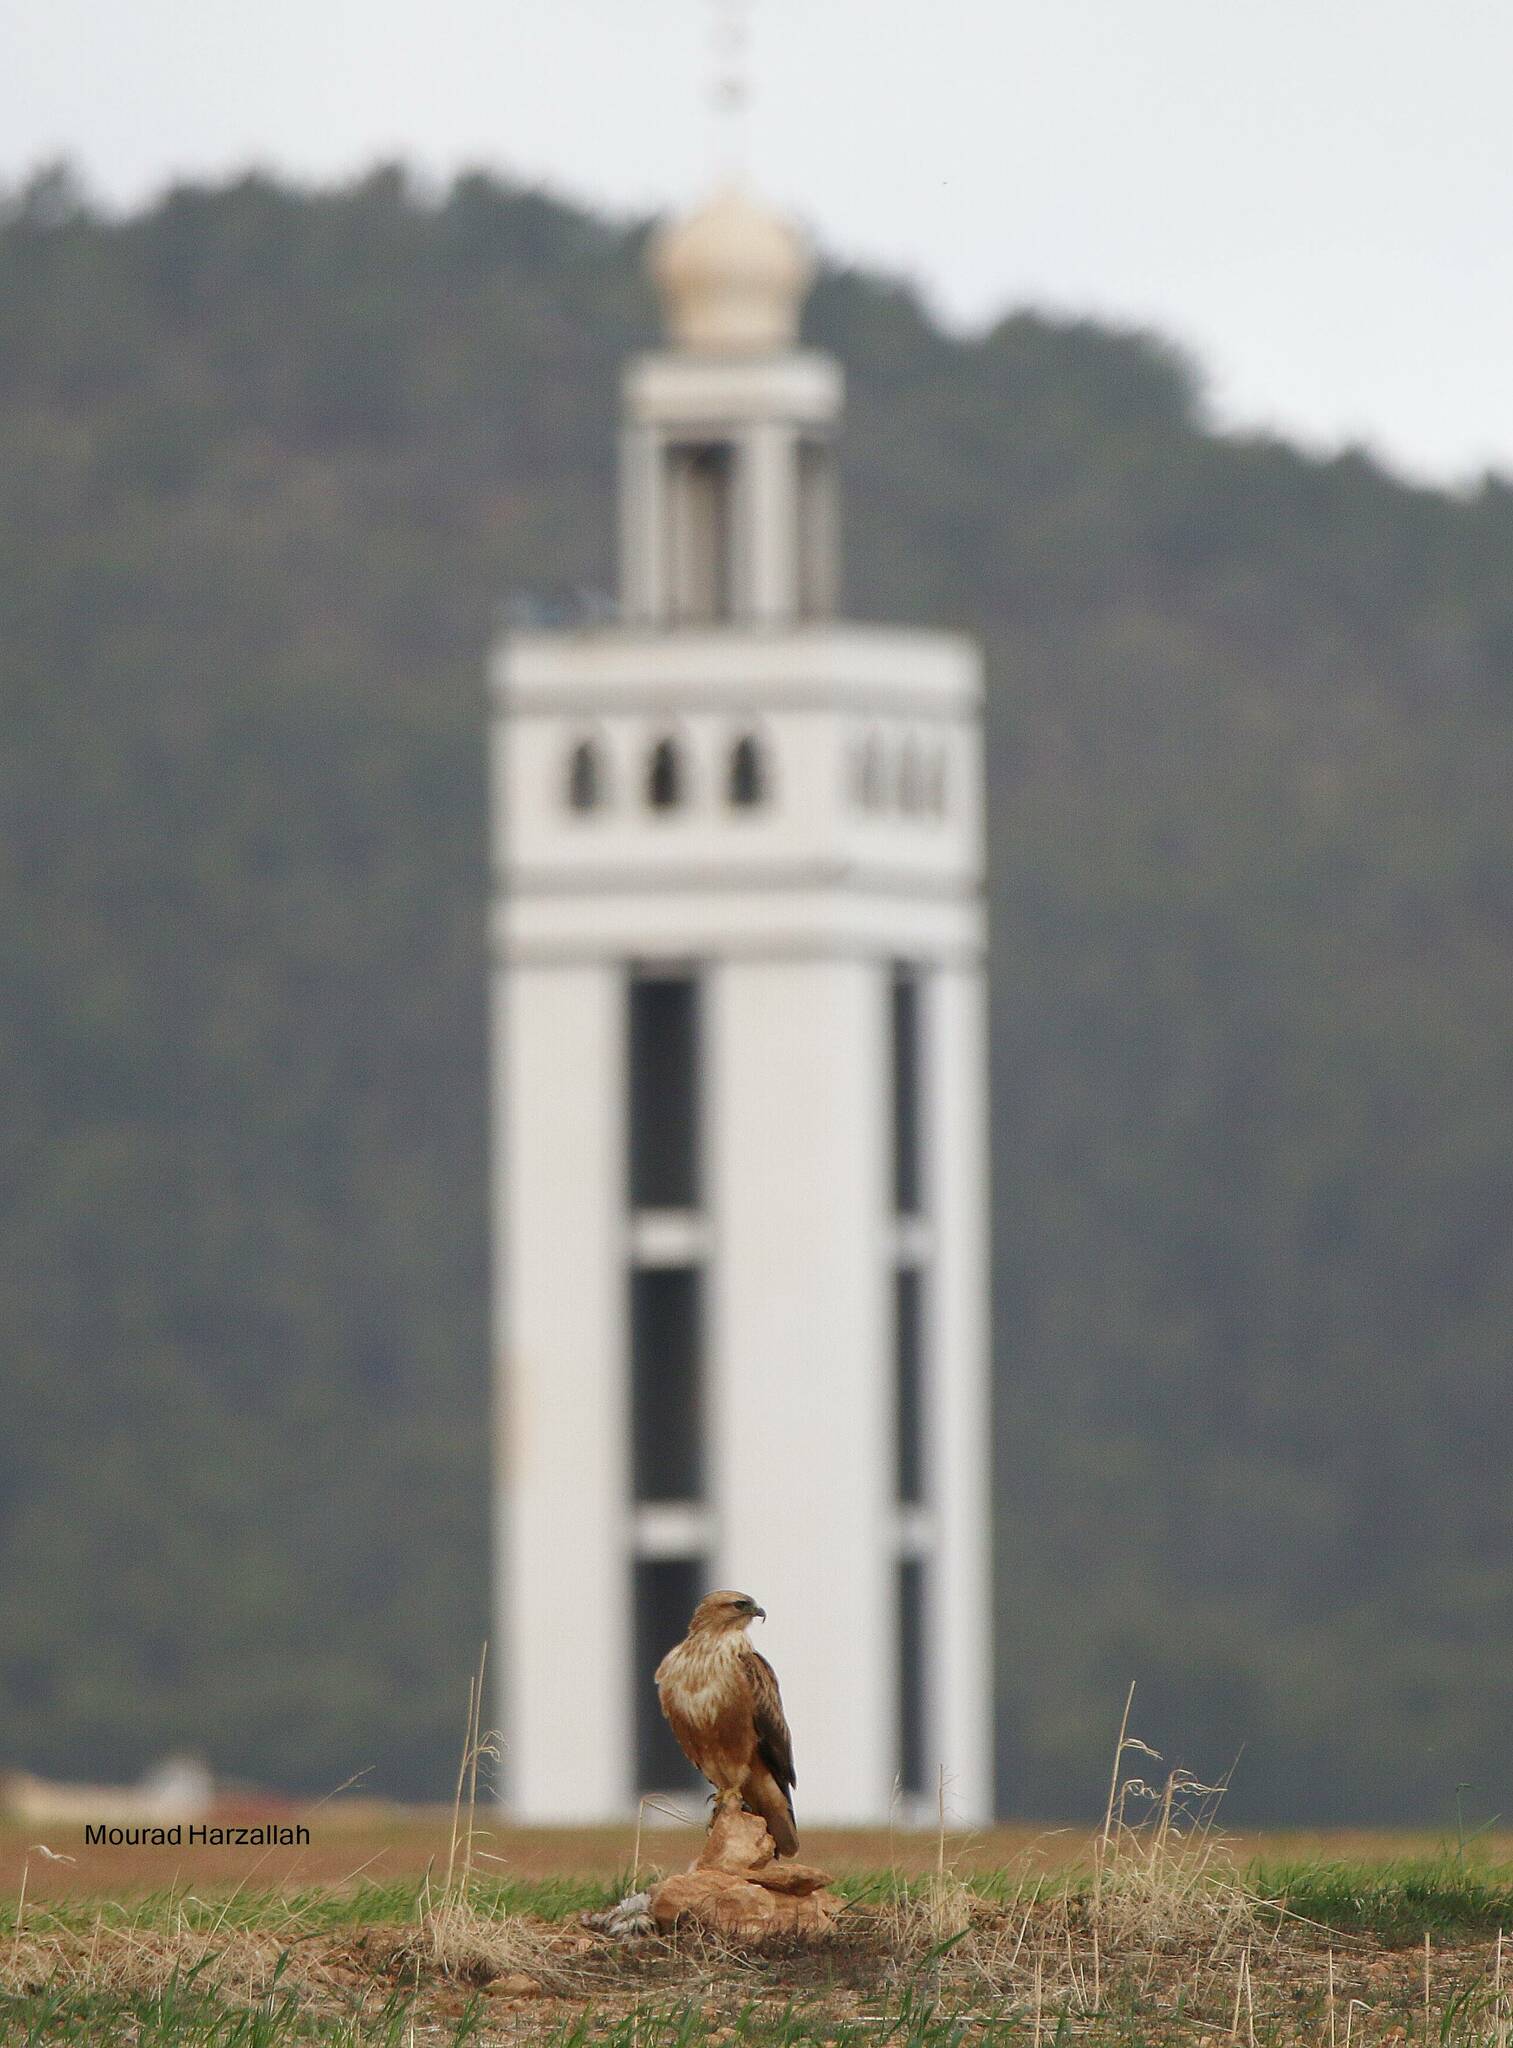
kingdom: Animalia
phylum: Chordata
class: Aves
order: Accipitriformes
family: Accipitridae
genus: Buteo
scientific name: Buteo rufinus
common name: Long-legged buzzard
